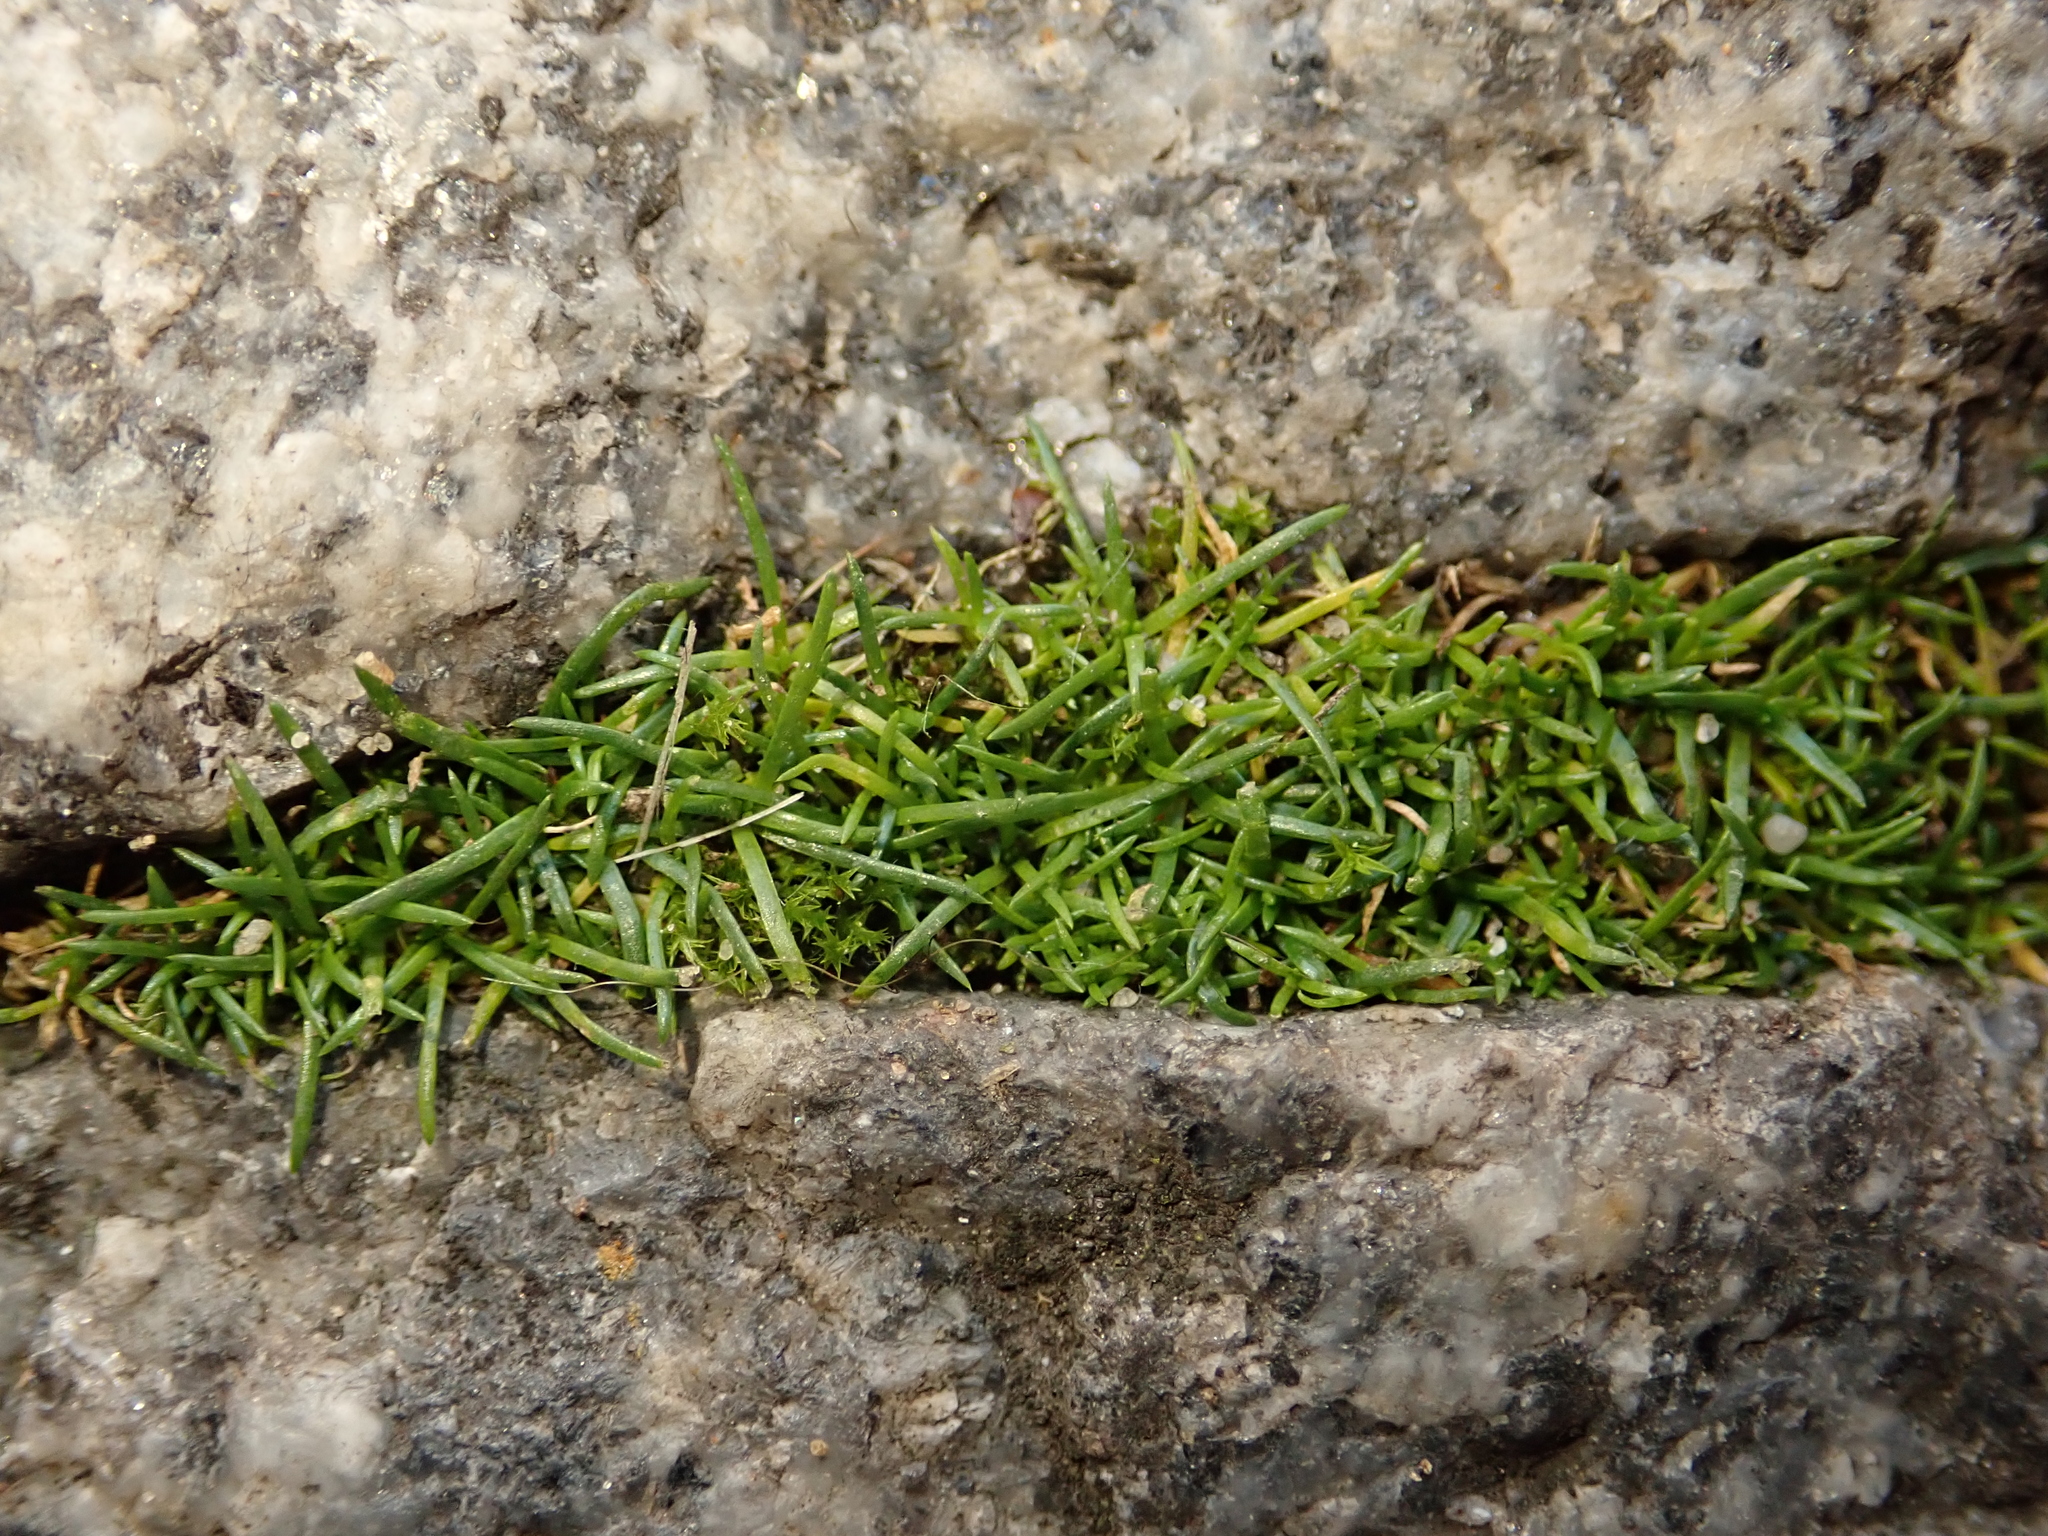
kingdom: Plantae
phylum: Tracheophyta
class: Magnoliopsida
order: Caryophyllales
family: Caryophyllaceae
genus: Sagina
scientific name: Sagina procumbens
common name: Procumbent pearlwort
